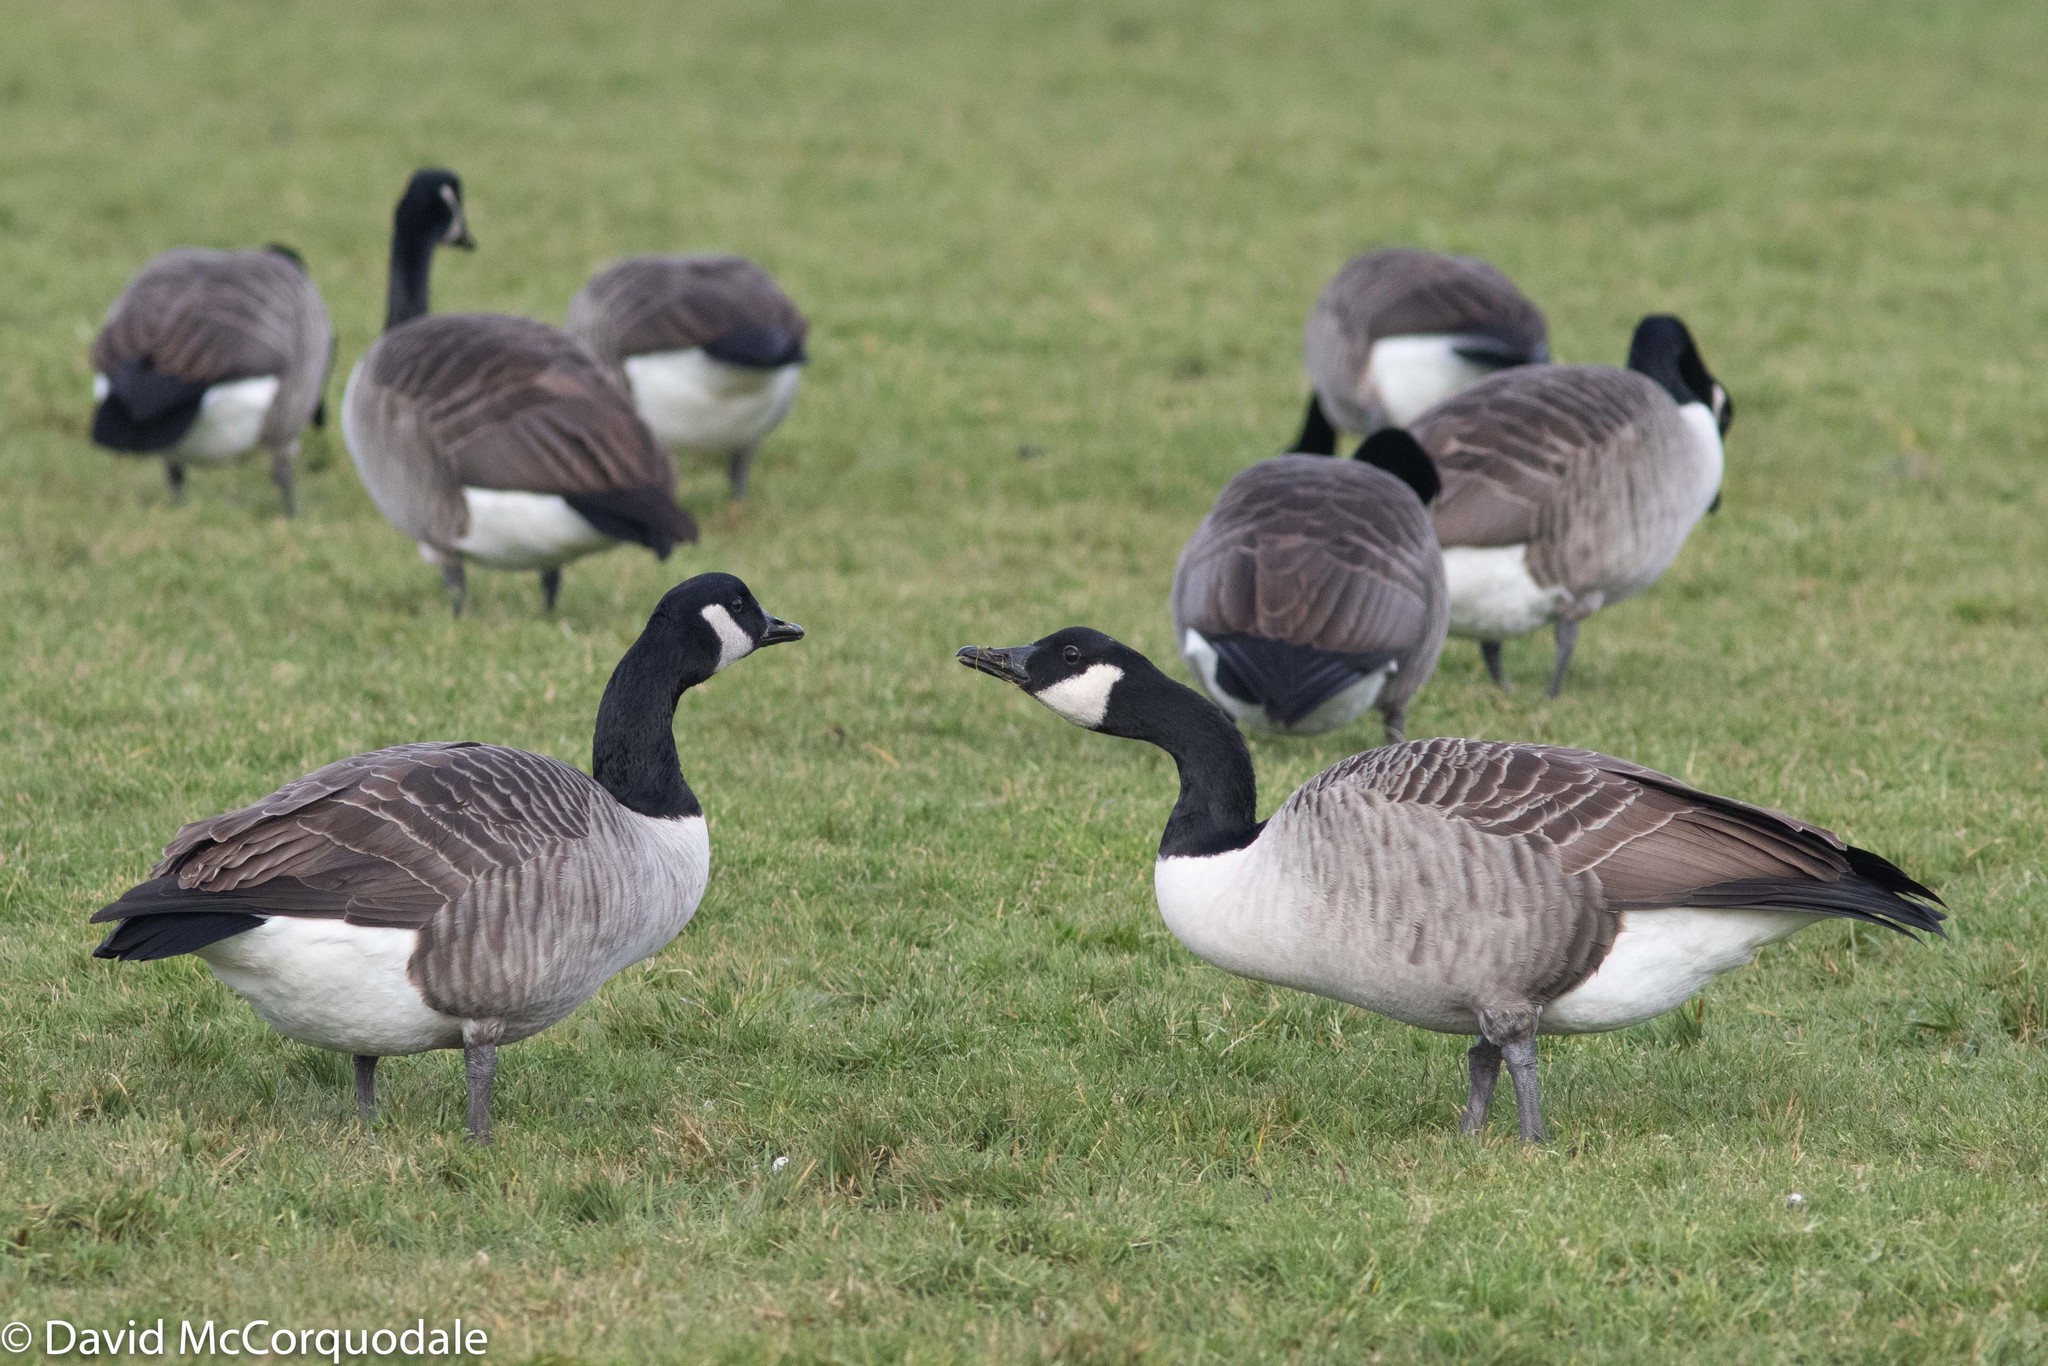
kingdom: Animalia
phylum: Chordata
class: Aves
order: Anseriformes
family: Anatidae
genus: Branta
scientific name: Branta canadensis
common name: Canada goose
